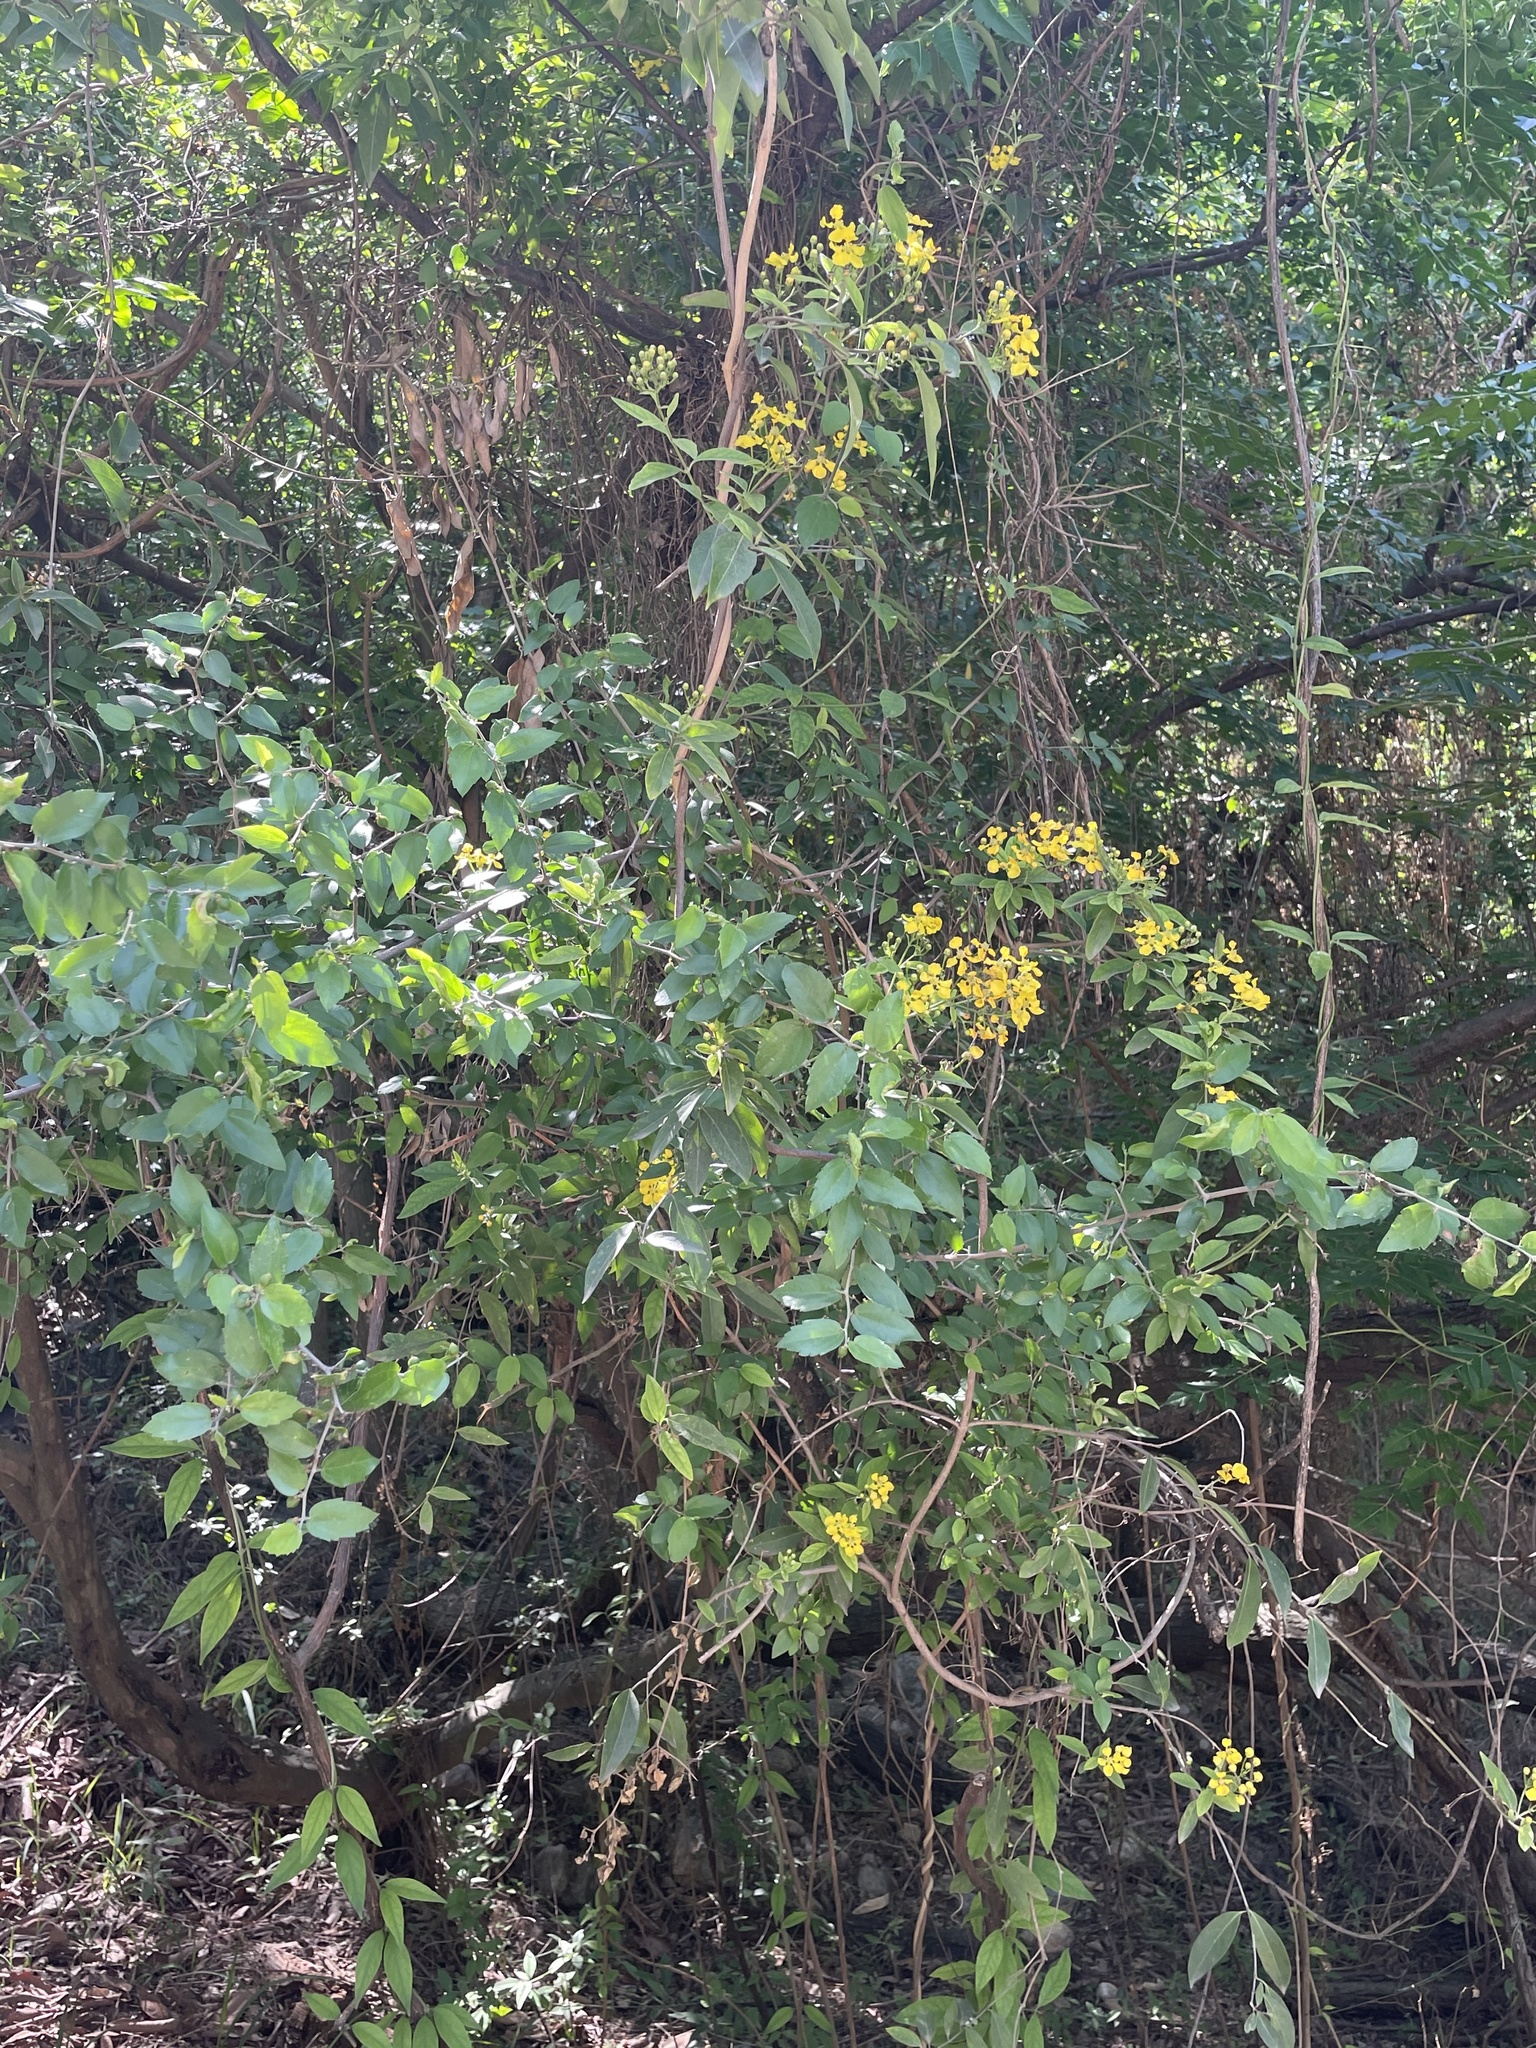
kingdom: Plantae
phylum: Tracheophyta
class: Magnoliopsida
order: Malpighiales
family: Malpighiaceae
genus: Callaeum
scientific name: Callaeum macropterum
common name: Mexican butterfly-vine
